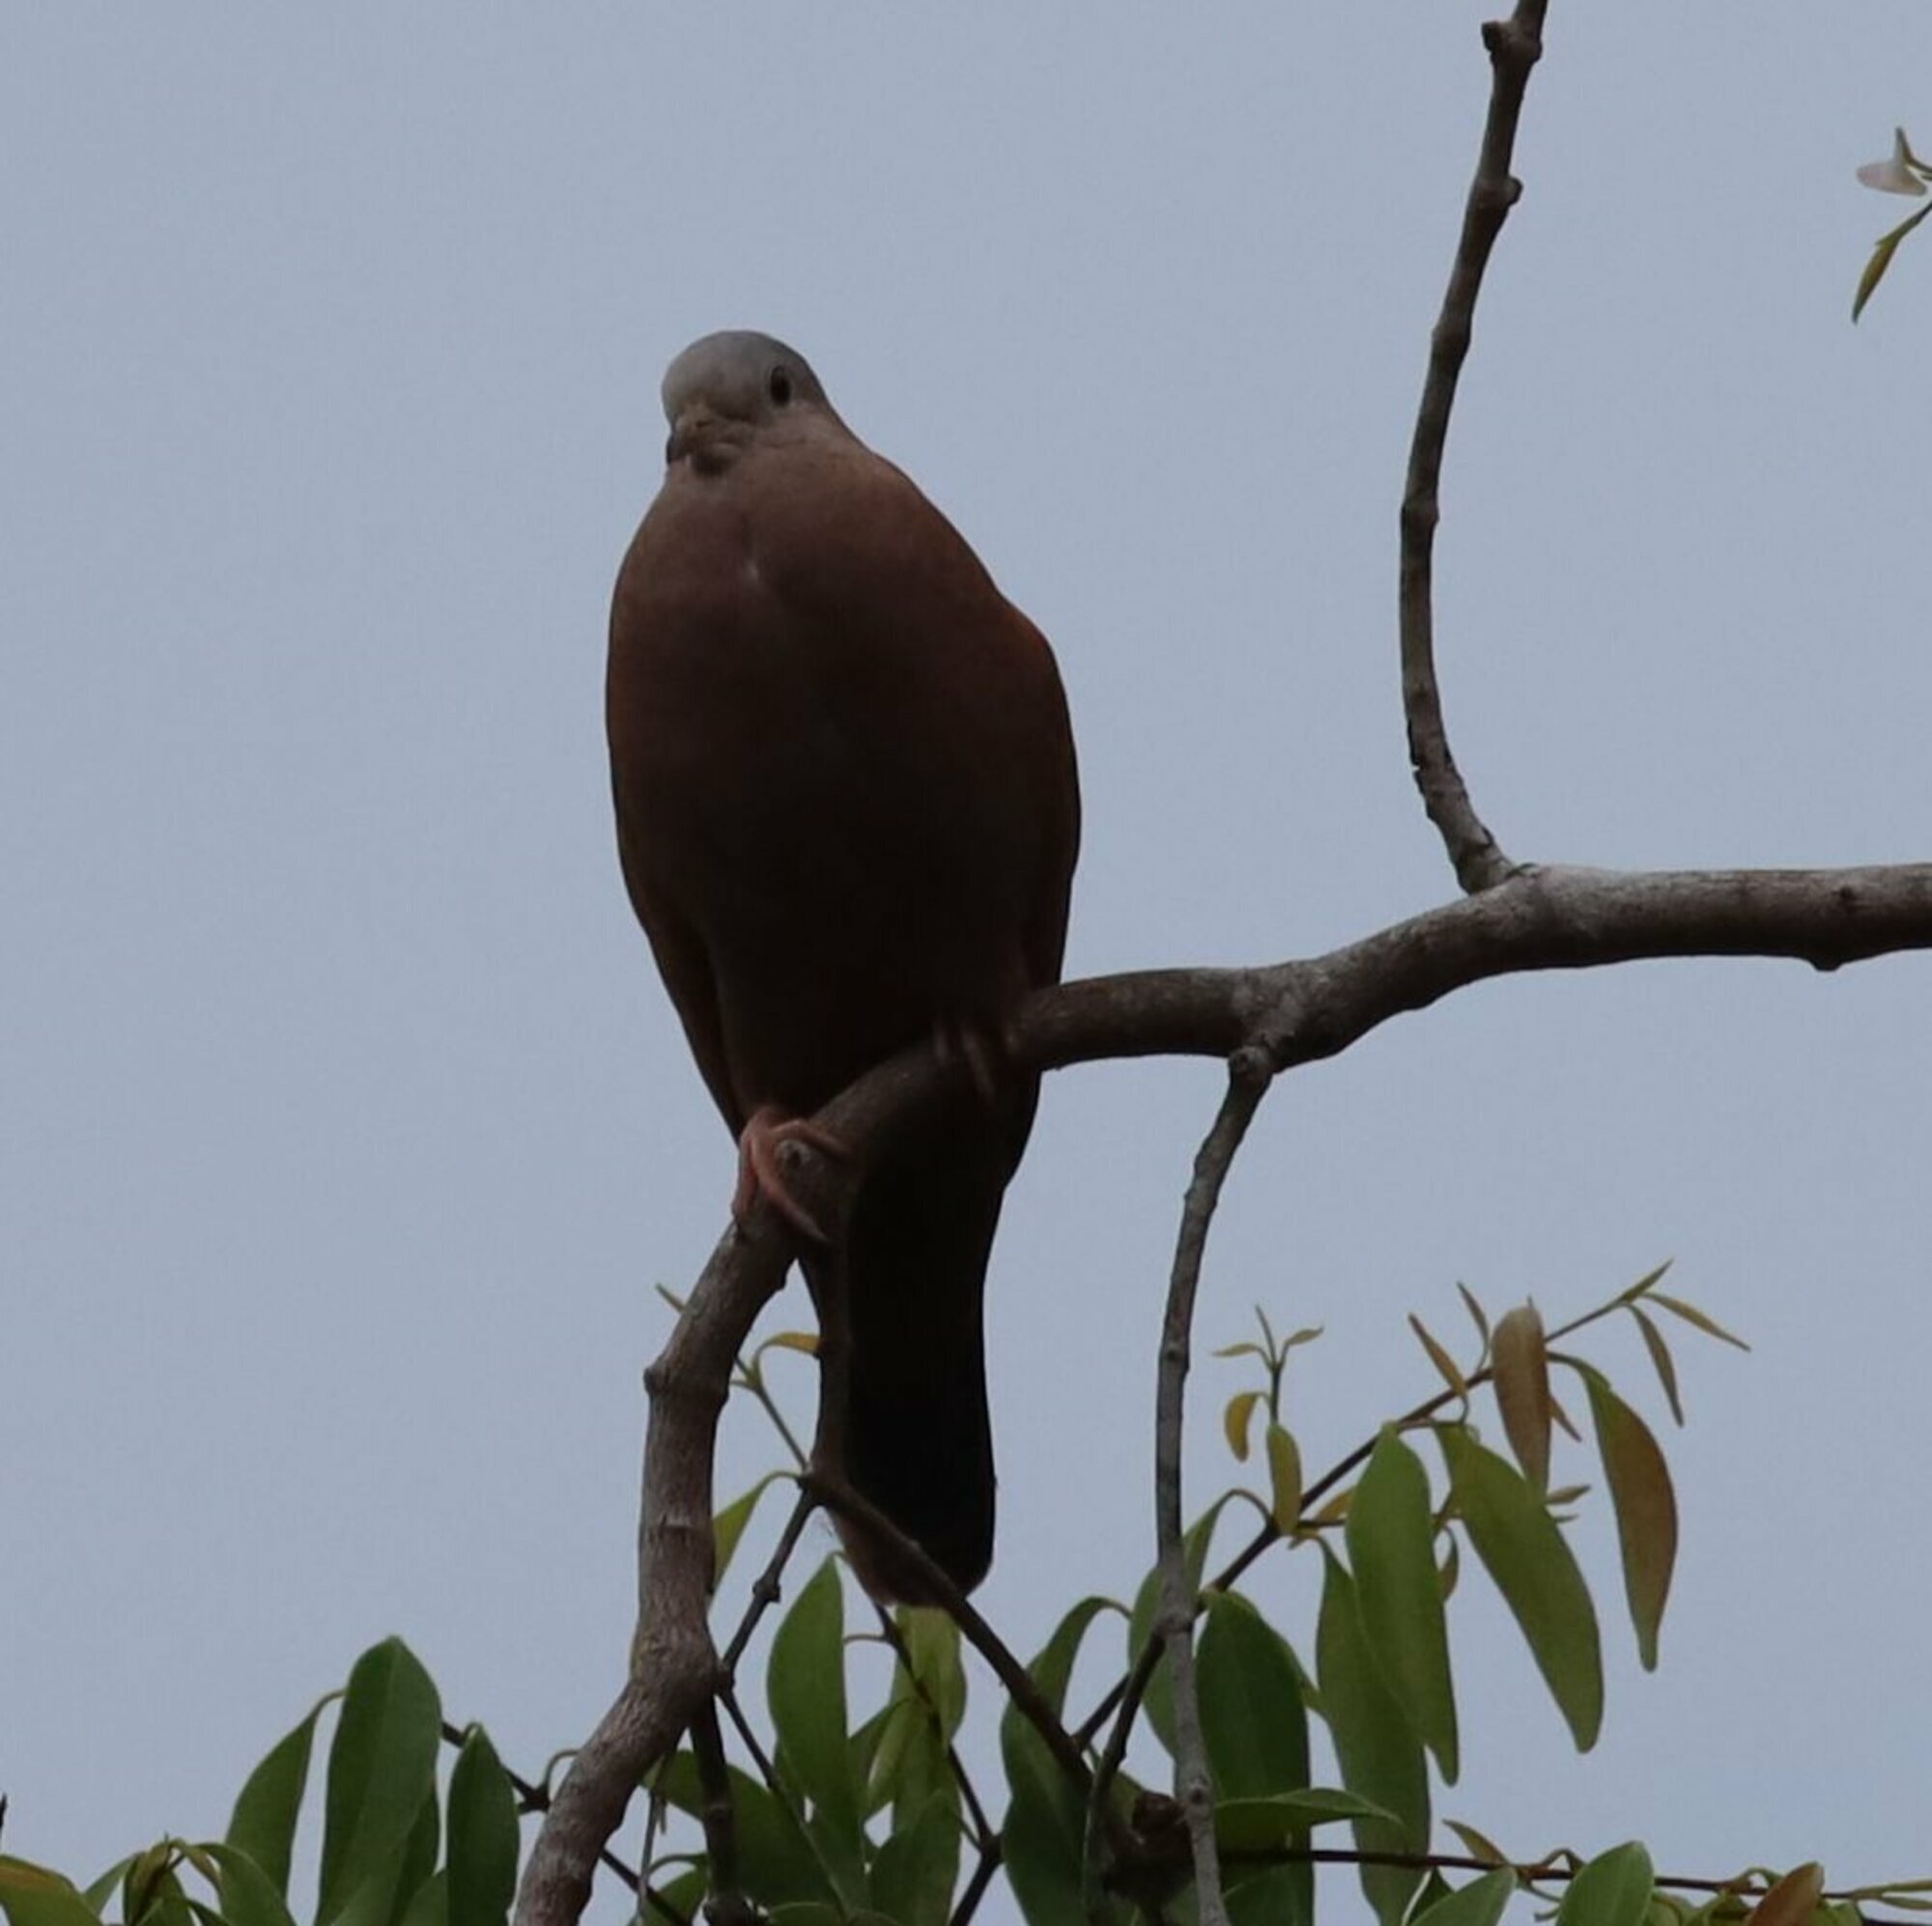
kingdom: Animalia
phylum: Chordata
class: Aves
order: Columbiformes
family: Columbidae
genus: Columbina
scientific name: Columbina talpacoti
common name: Ruddy ground dove
